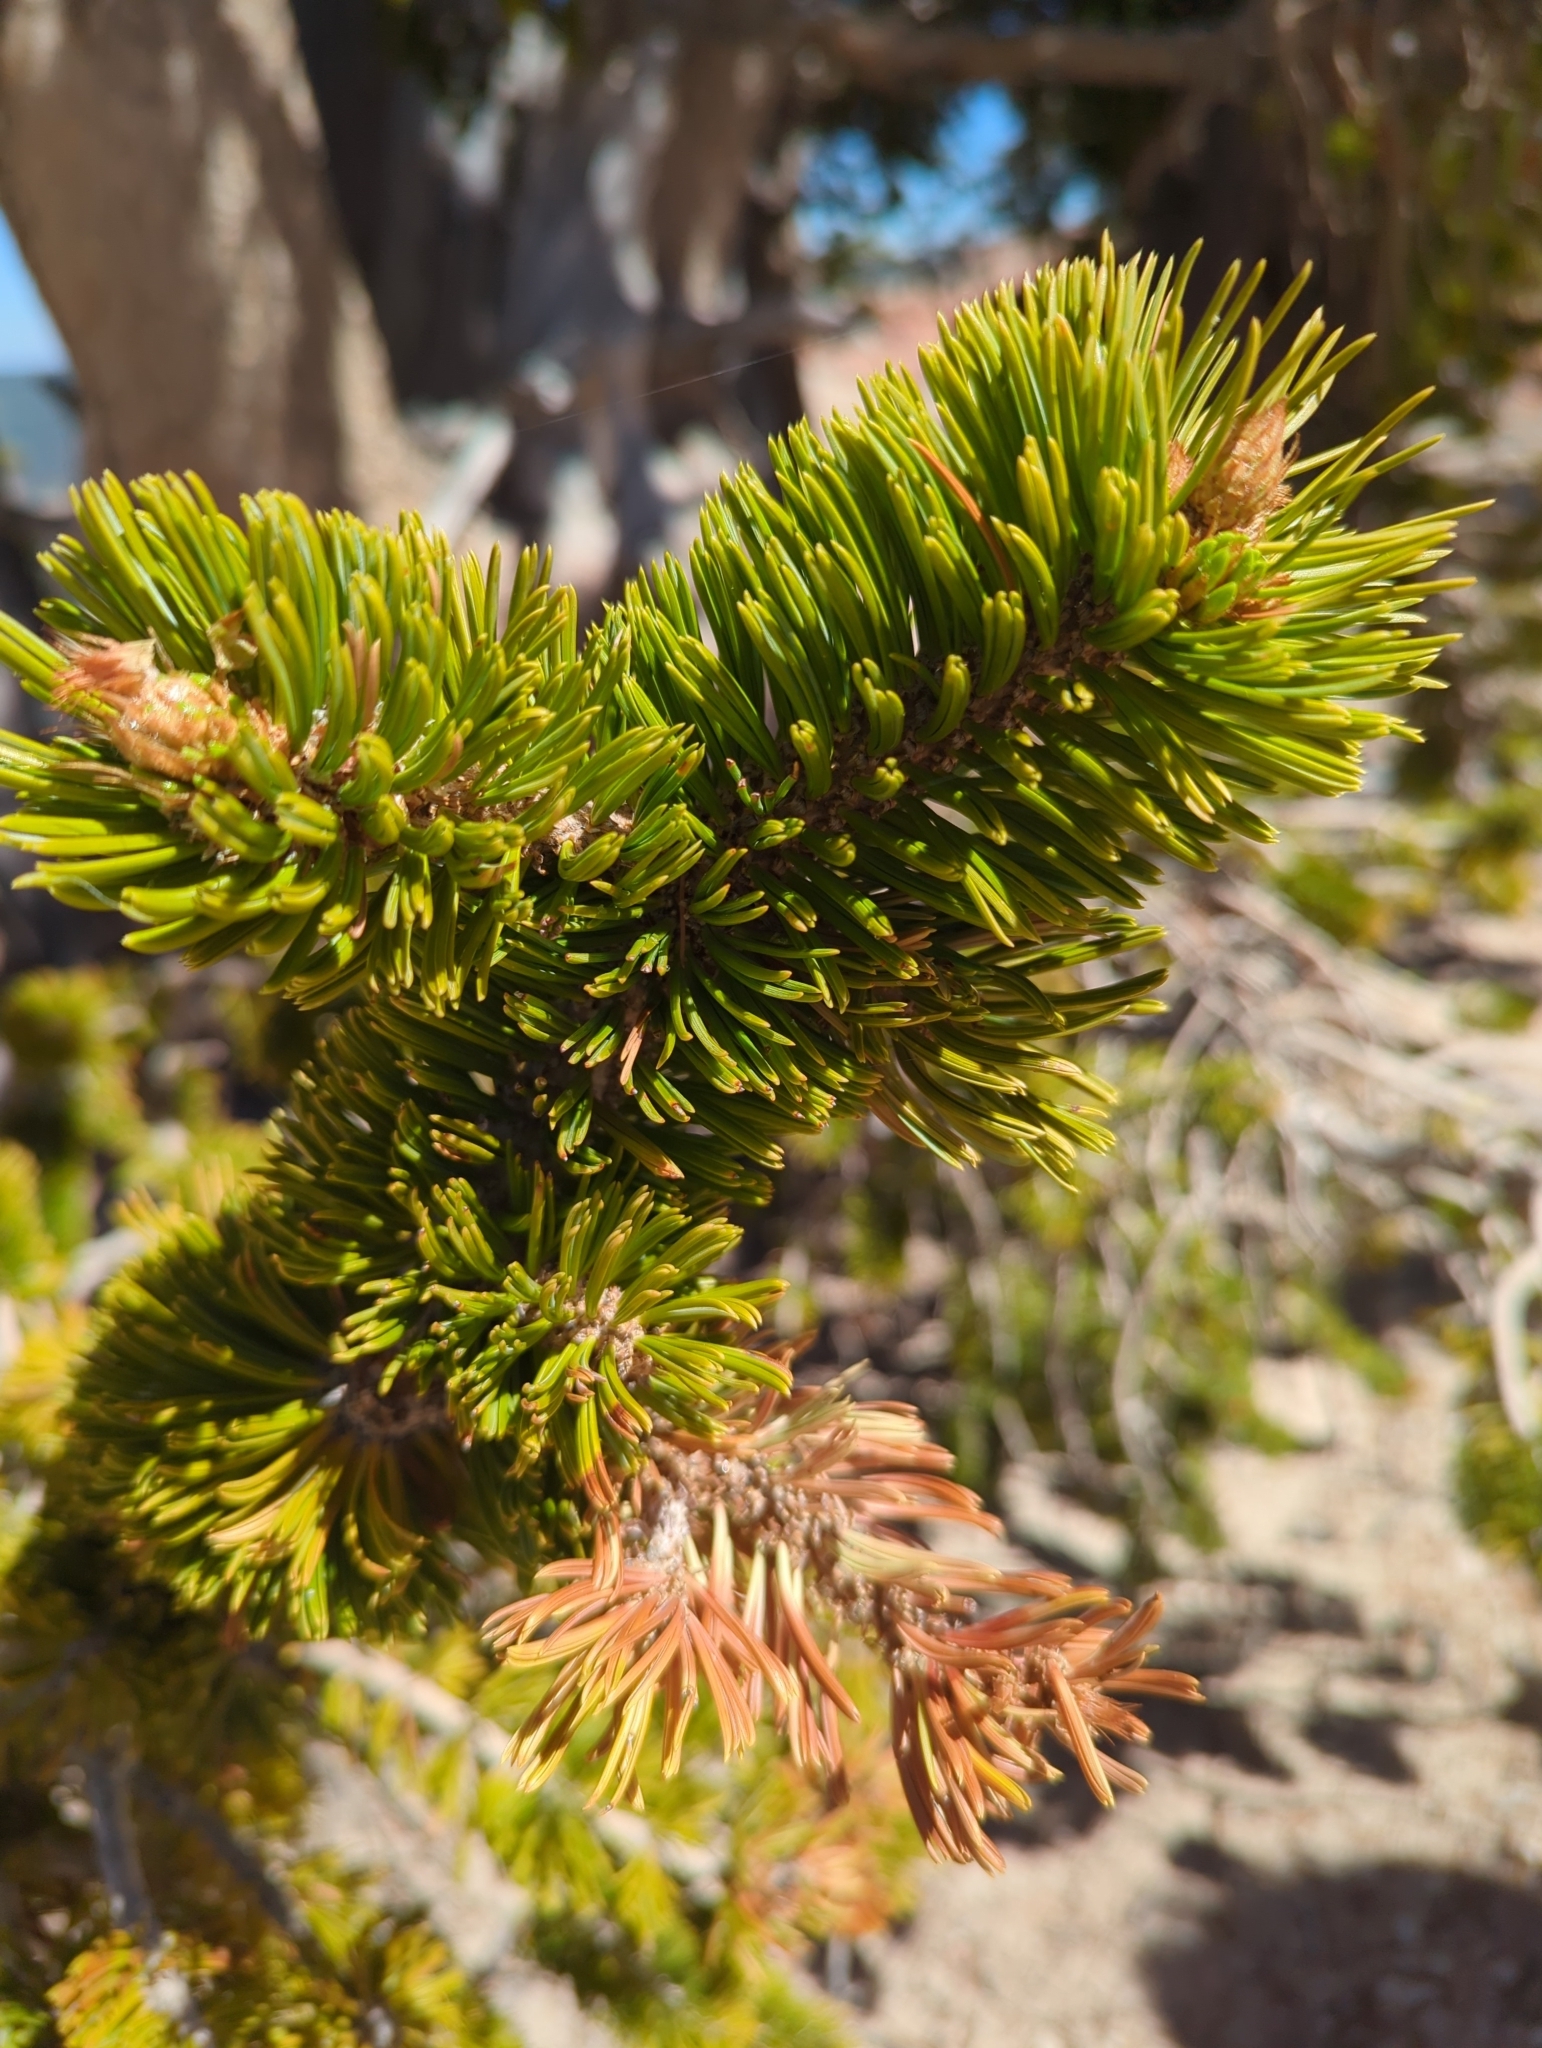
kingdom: Plantae
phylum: Tracheophyta
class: Pinopsida
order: Pinales
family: Pinaceae
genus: Pinus
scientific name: Pinus longaeva
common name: Intermountain bristlecone pine
